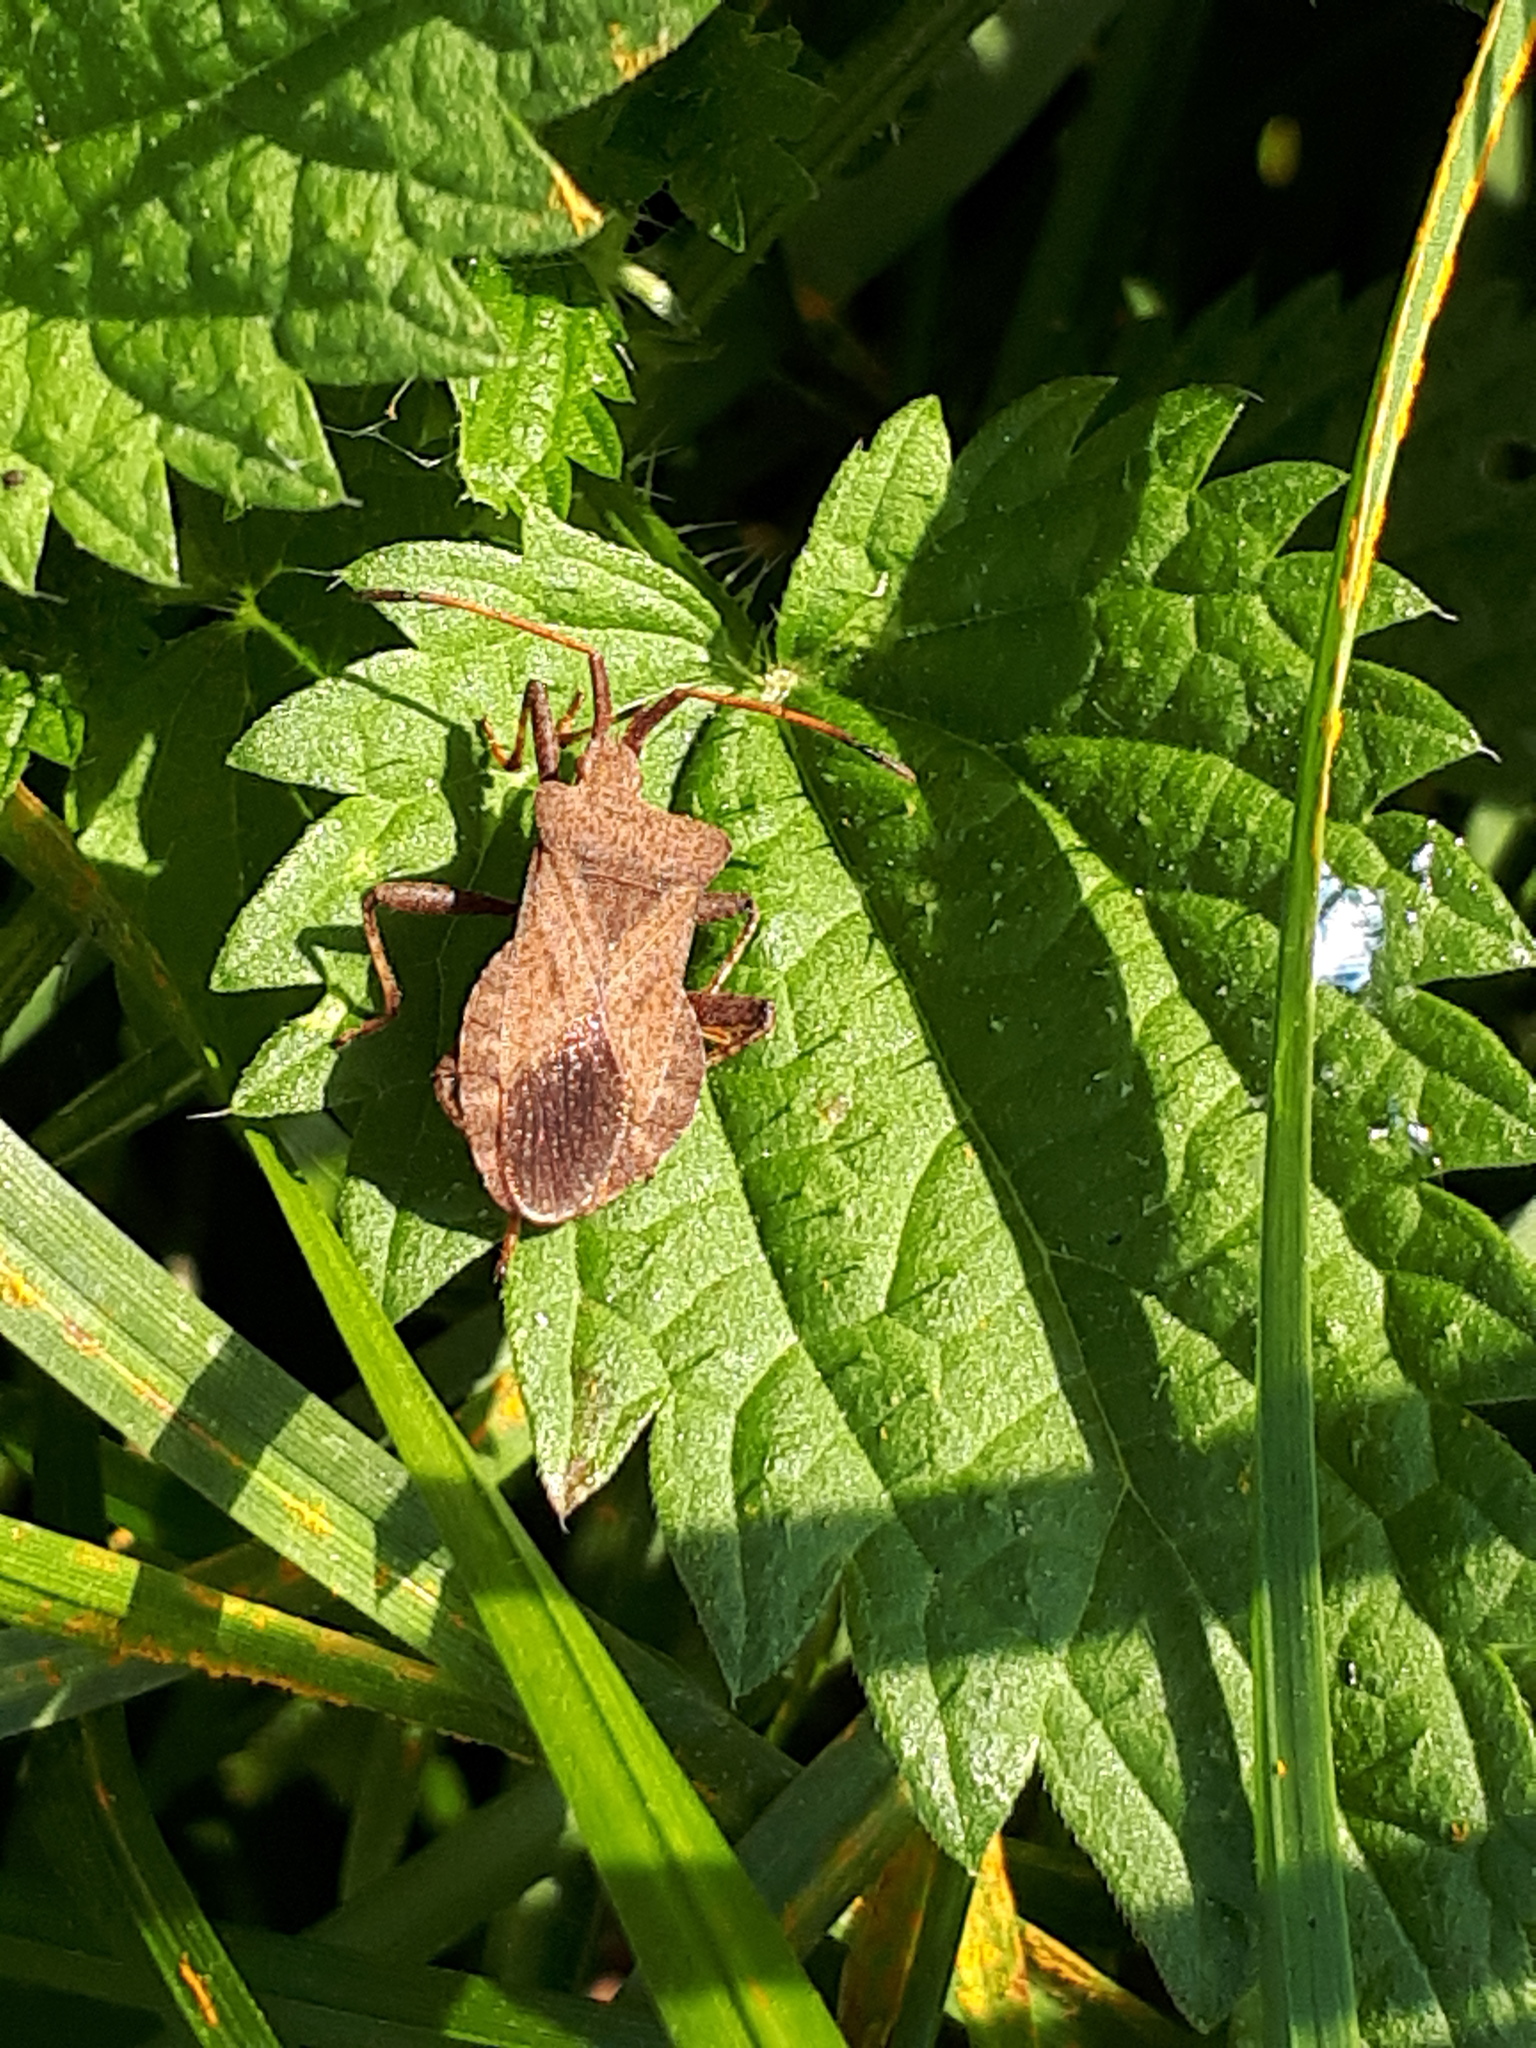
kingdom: Animalia
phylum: Arthropoda
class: Insecta
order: Hemiptera
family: Coreidae
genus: Coreus
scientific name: Coreus marginatus
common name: Dock bug
